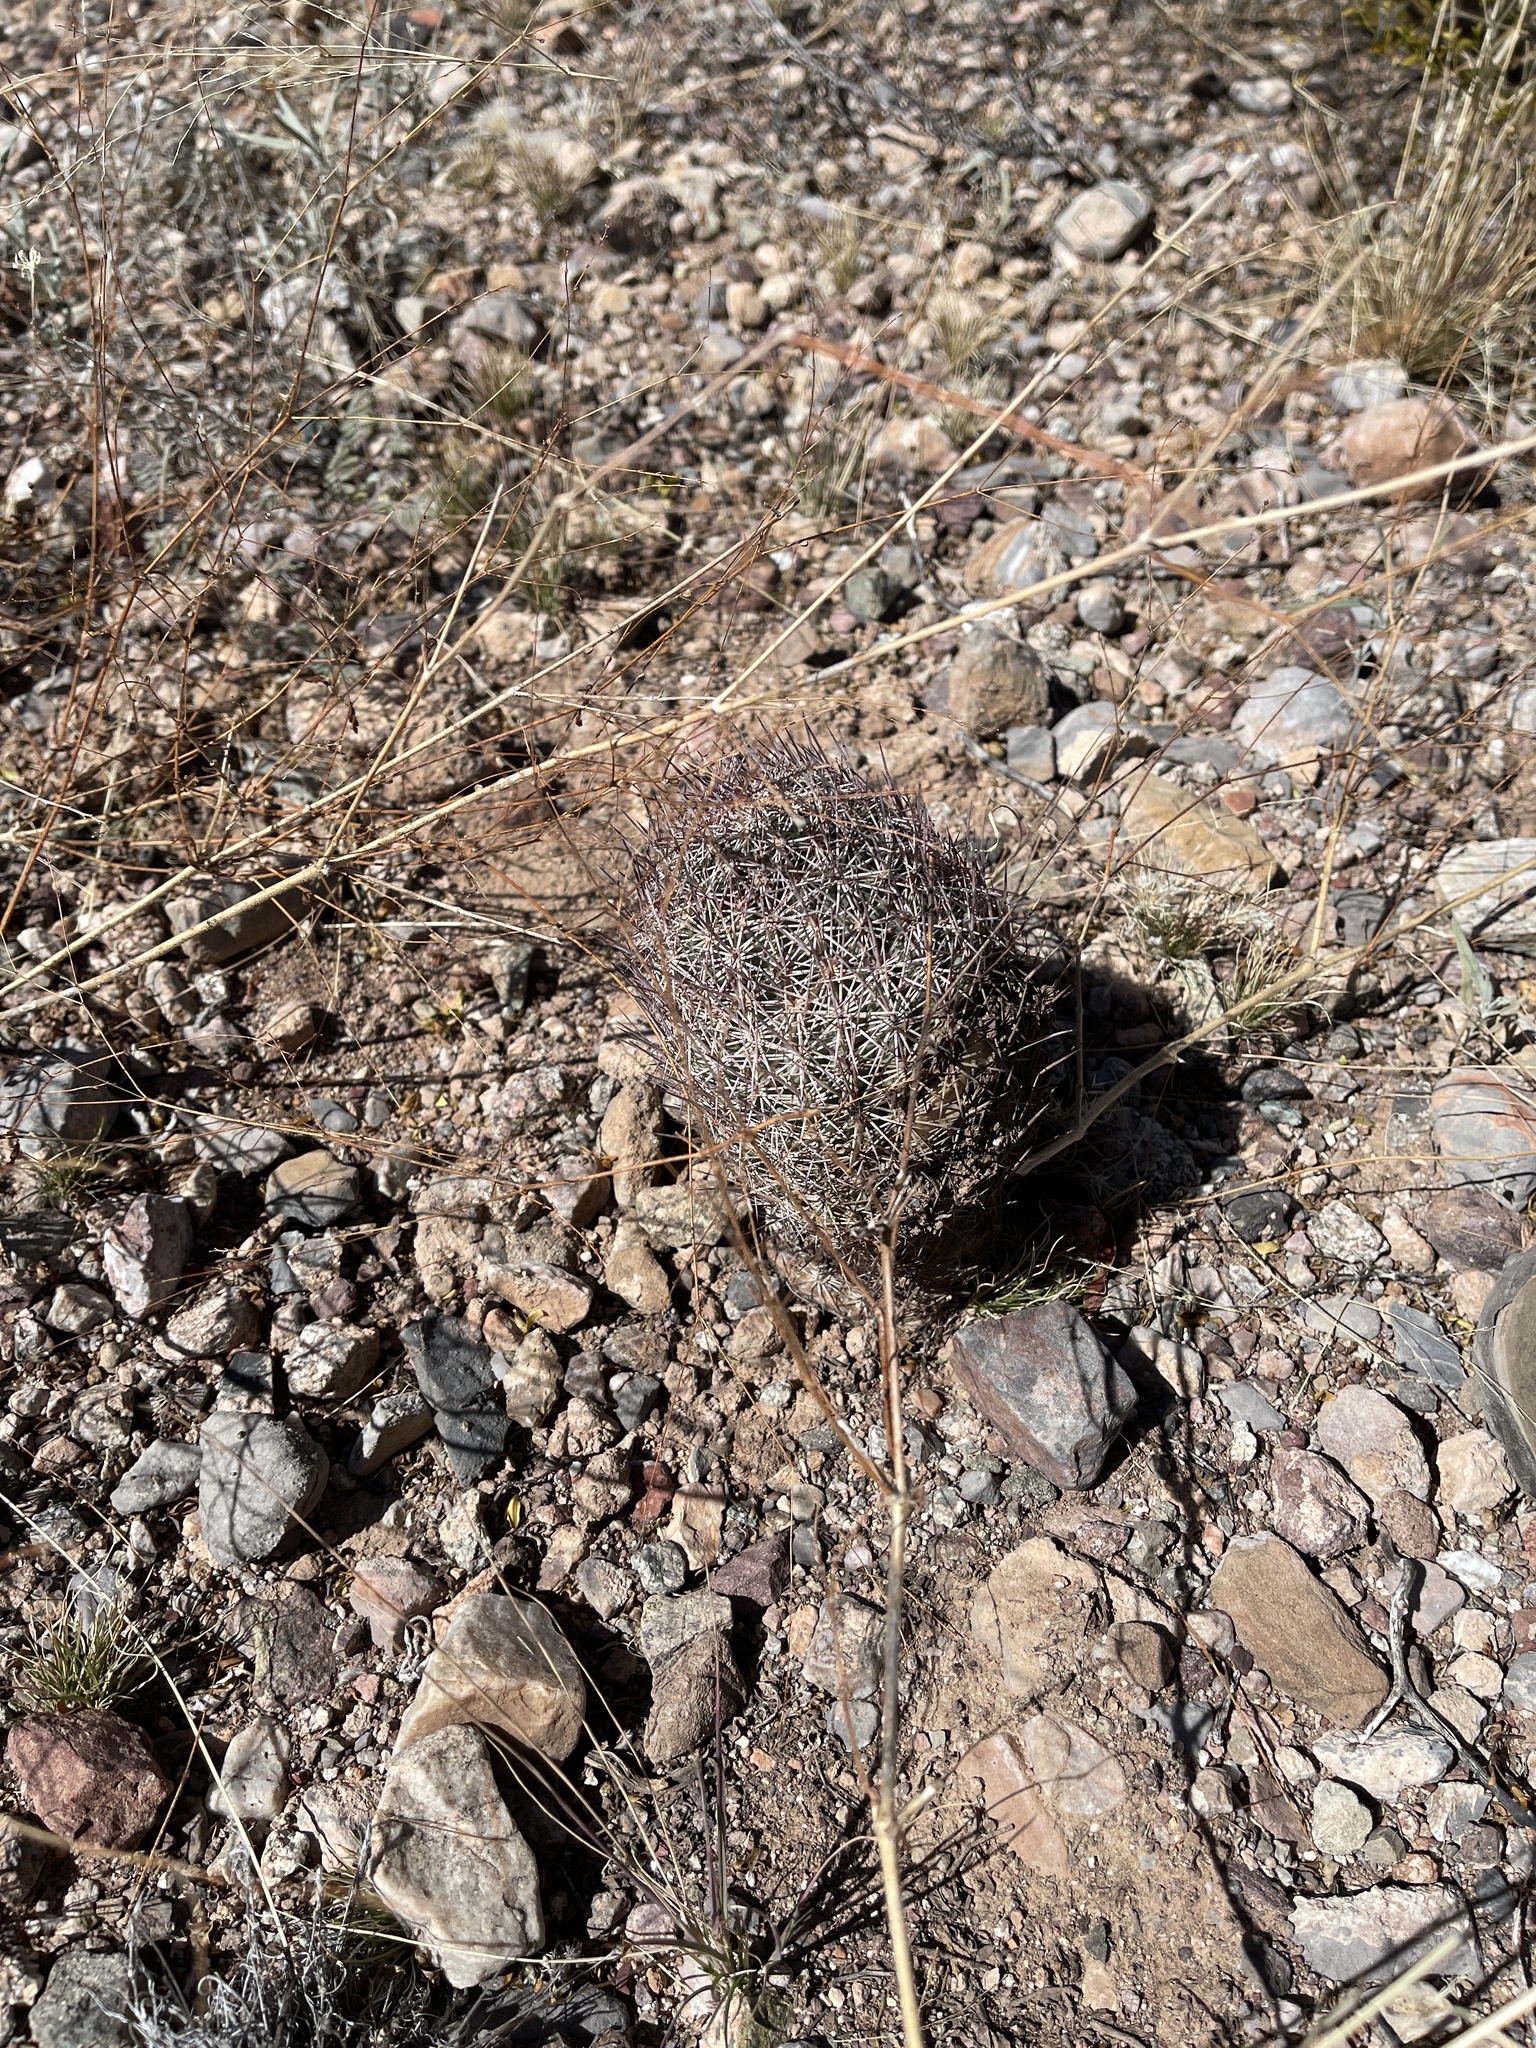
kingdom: Plantae
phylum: Tracheophyta
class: Magnoliopsida
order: Caryophyllales
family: Cactaceae
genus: Sclerocactus
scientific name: Sclerocactus johnsonii
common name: Eight-spine fishhook cactus
